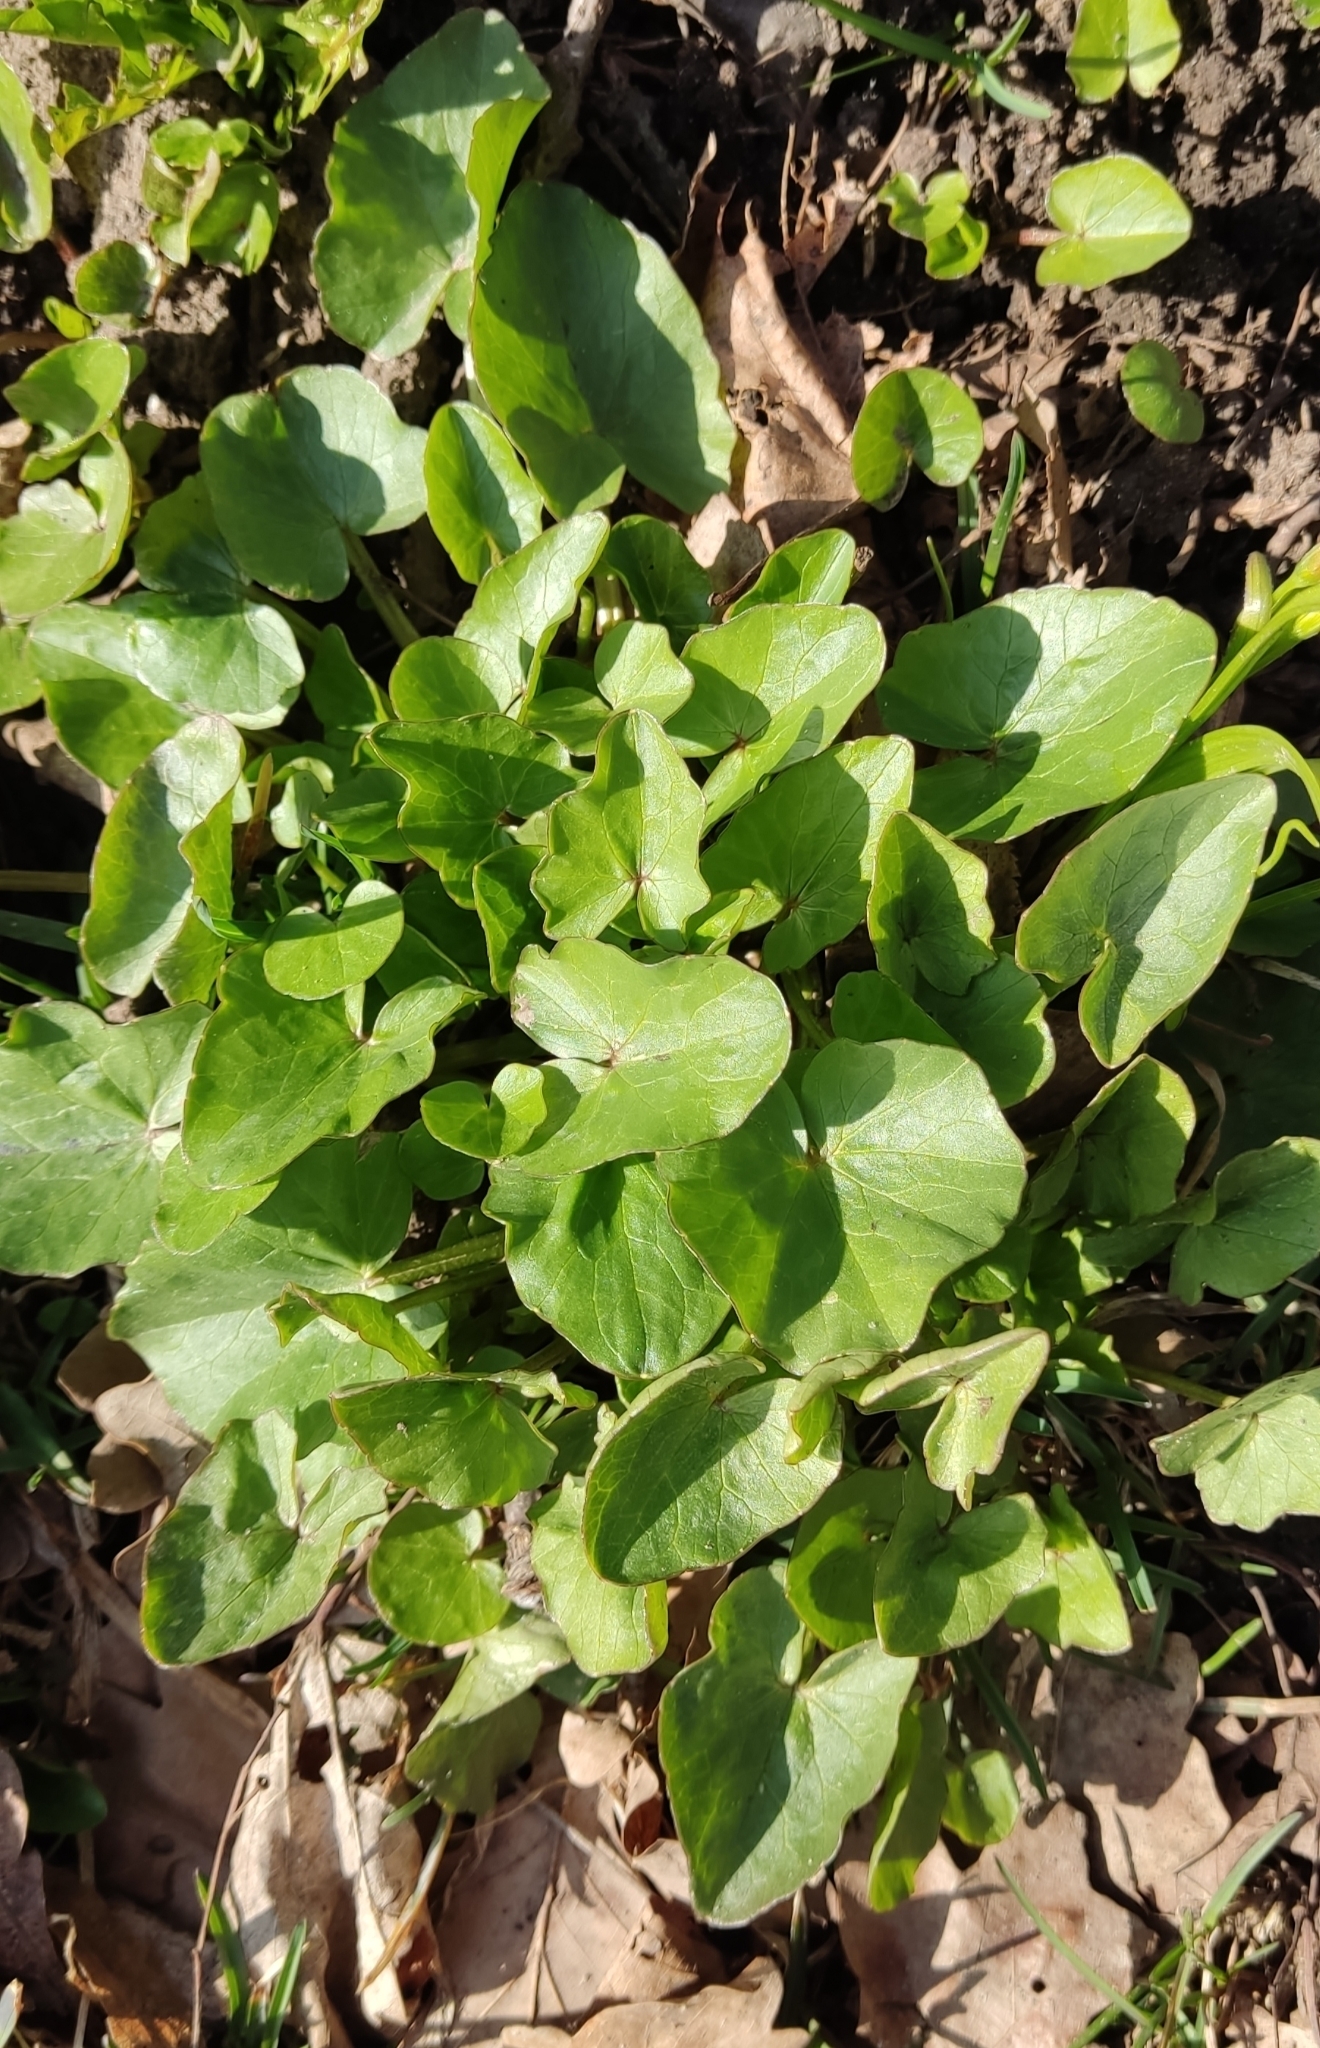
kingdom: Plantae
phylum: Tracheophyta
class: Magnoliopsida
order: Ranunculales
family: Ranunculaceae
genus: Ficaria
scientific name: Ficaria verna
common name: Lesser celandine
